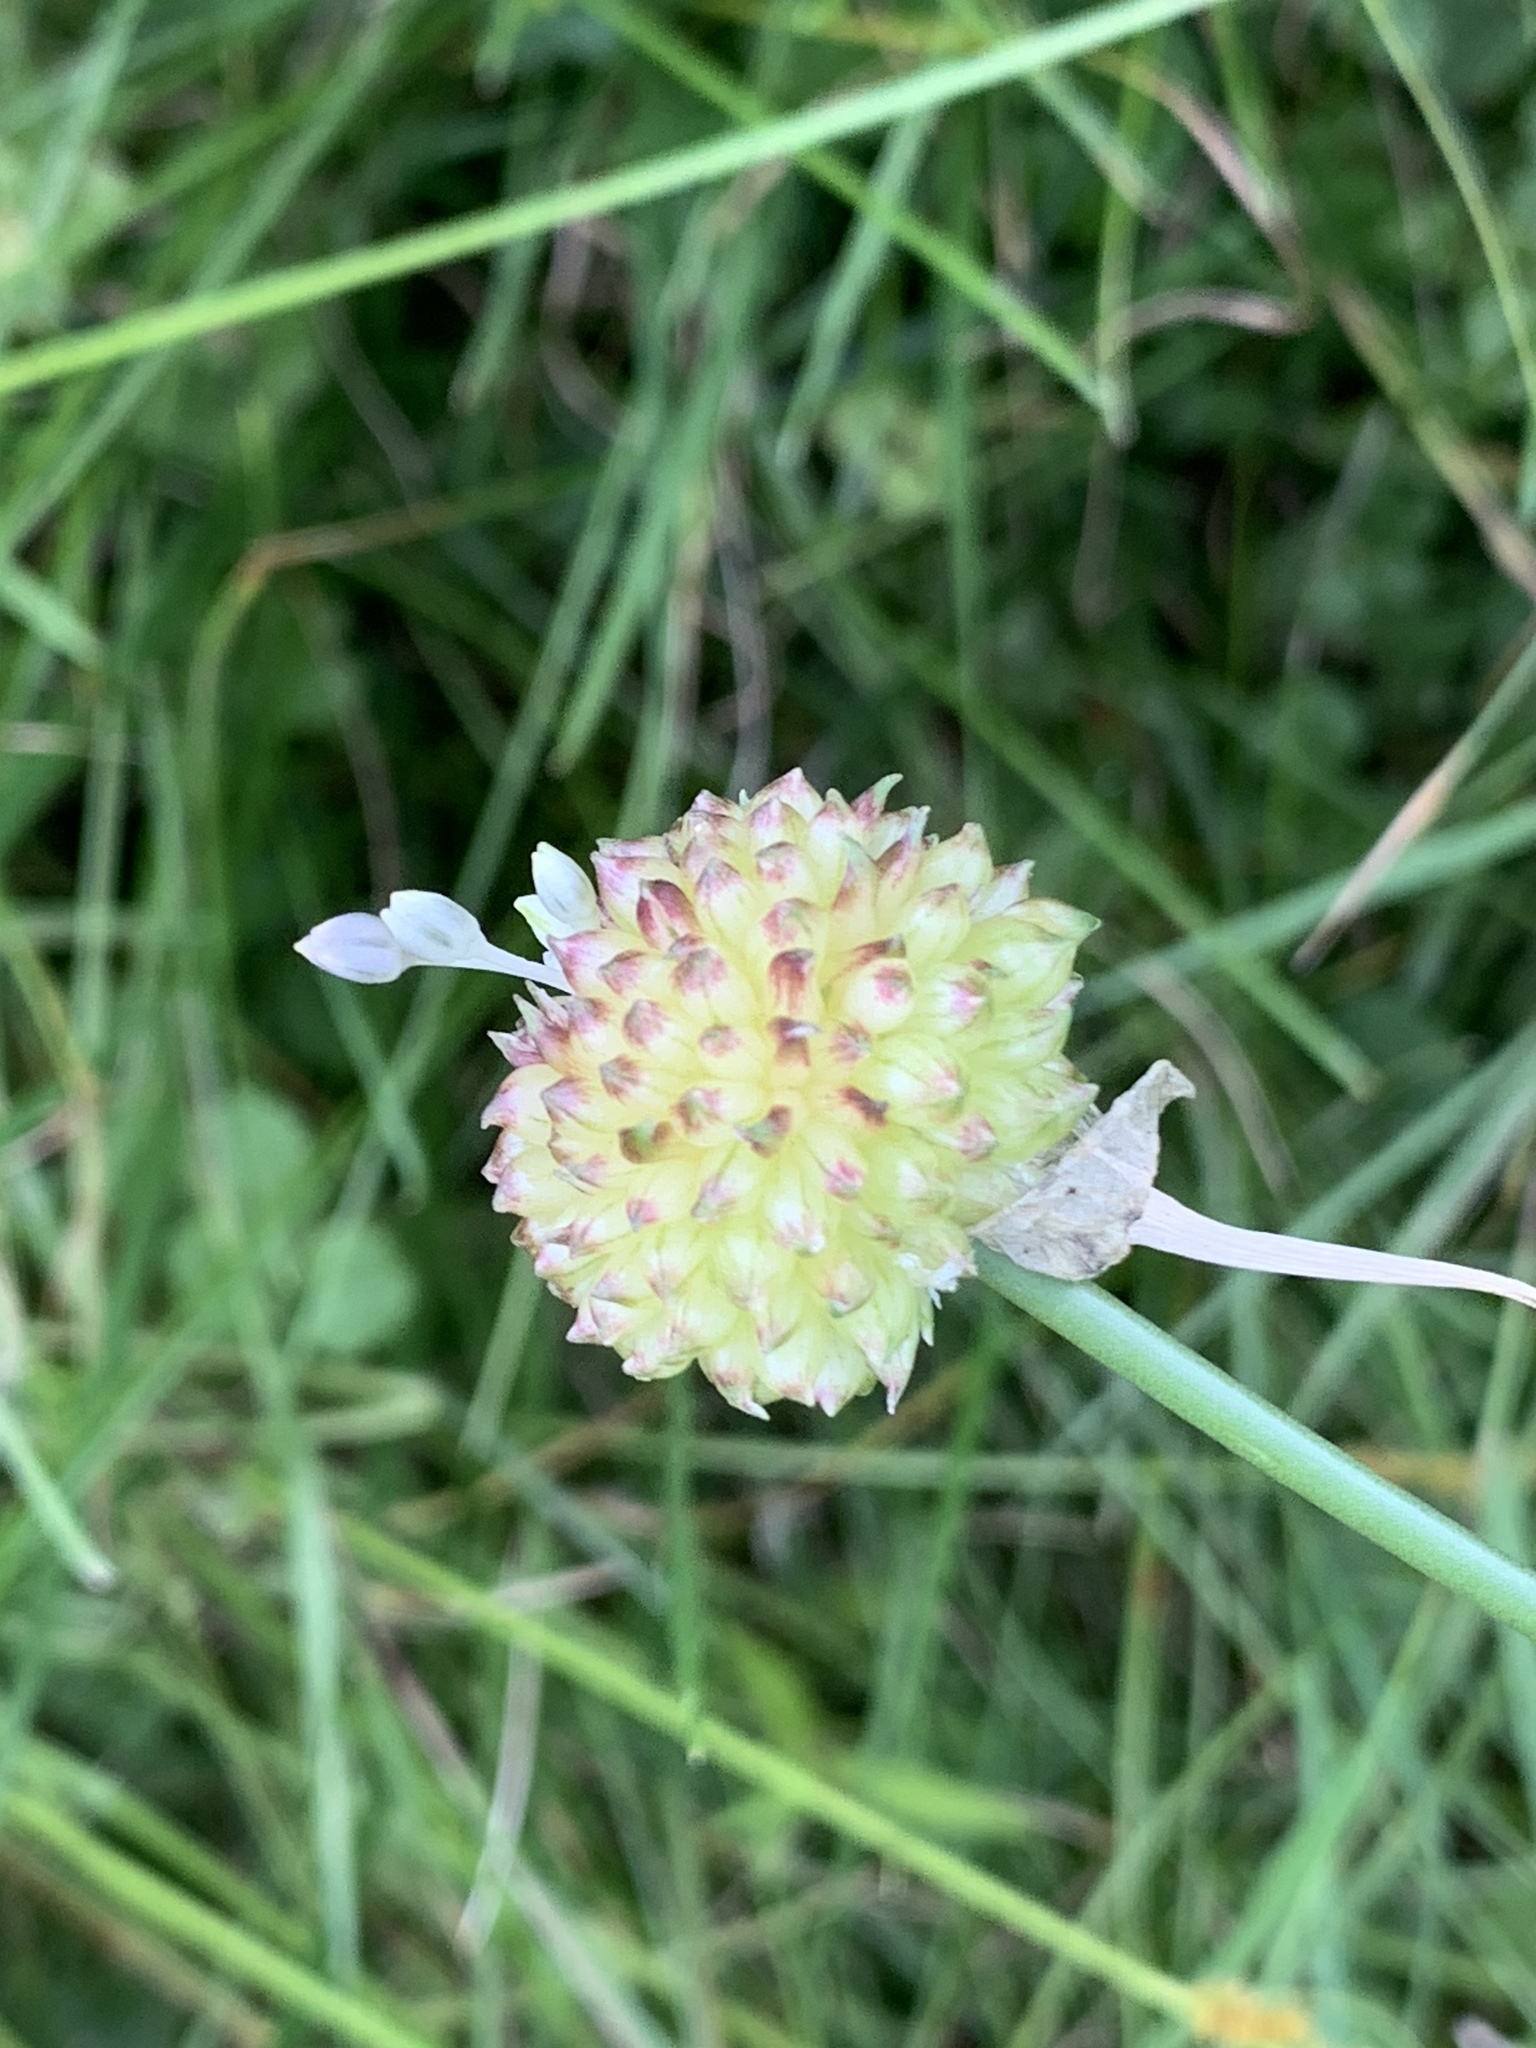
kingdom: Plantae
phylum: Tracheophyta
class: Liliopsida
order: Asparagales
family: Amaryllidaceae
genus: Allium
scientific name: Allium vineale
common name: Crow garlic
